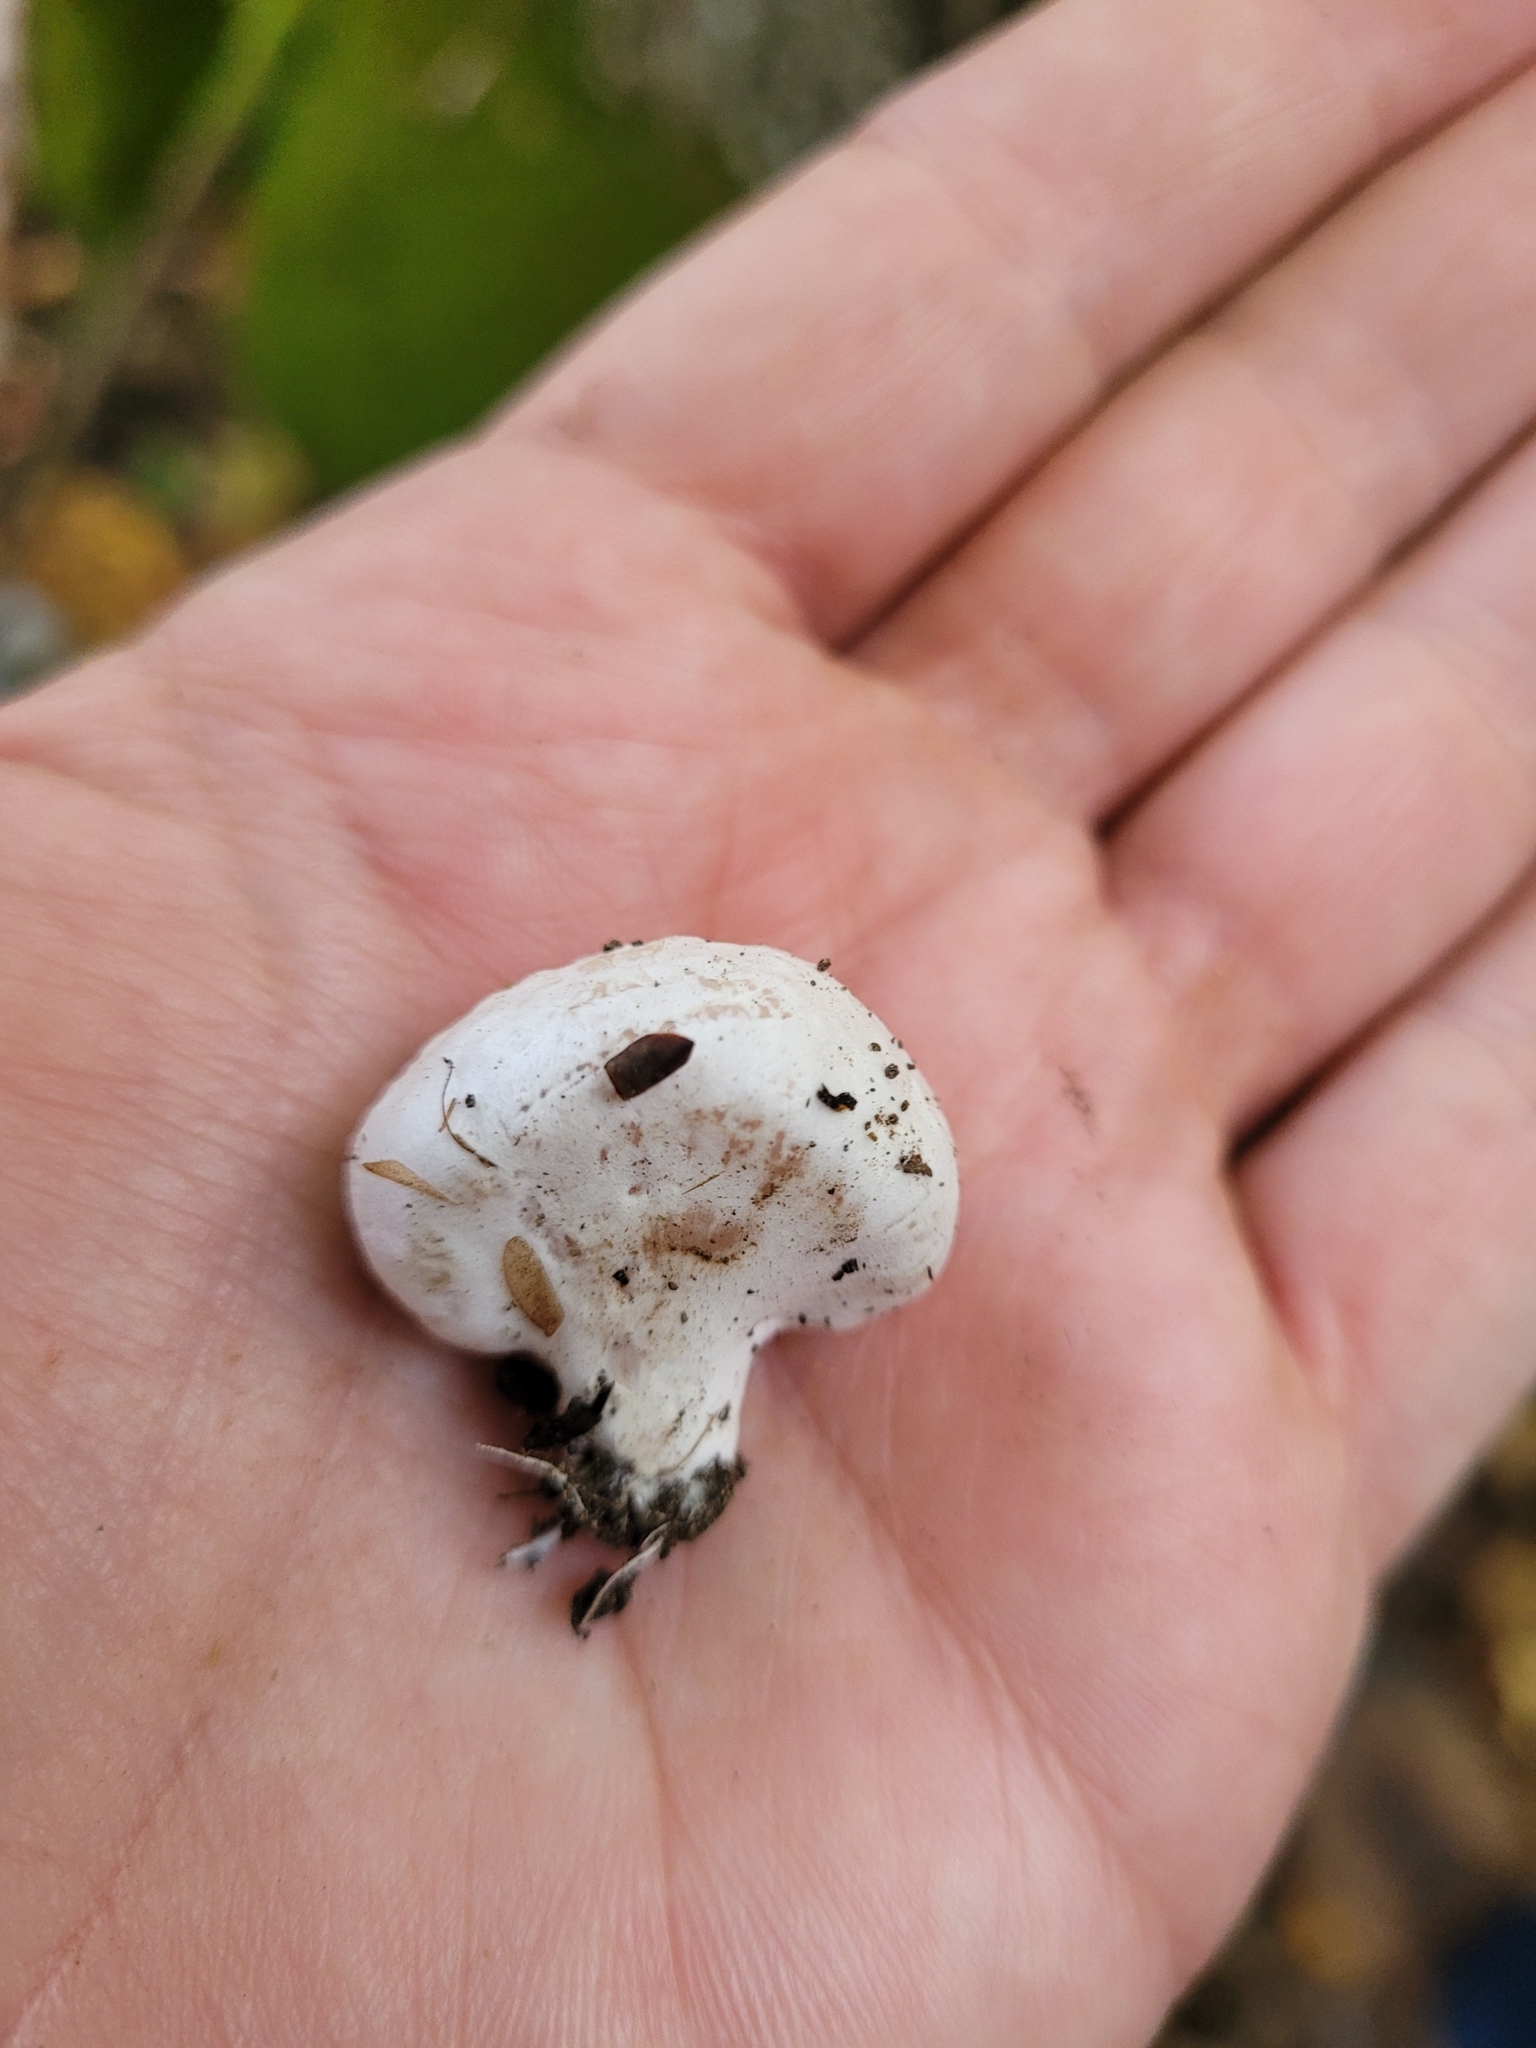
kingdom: Fungi
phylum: Basidiomycota
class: Agaricomycetes
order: Agaricales
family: Entolomataceae
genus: Entoloma
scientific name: Entoloma abortivum
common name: Aborted entoloma
